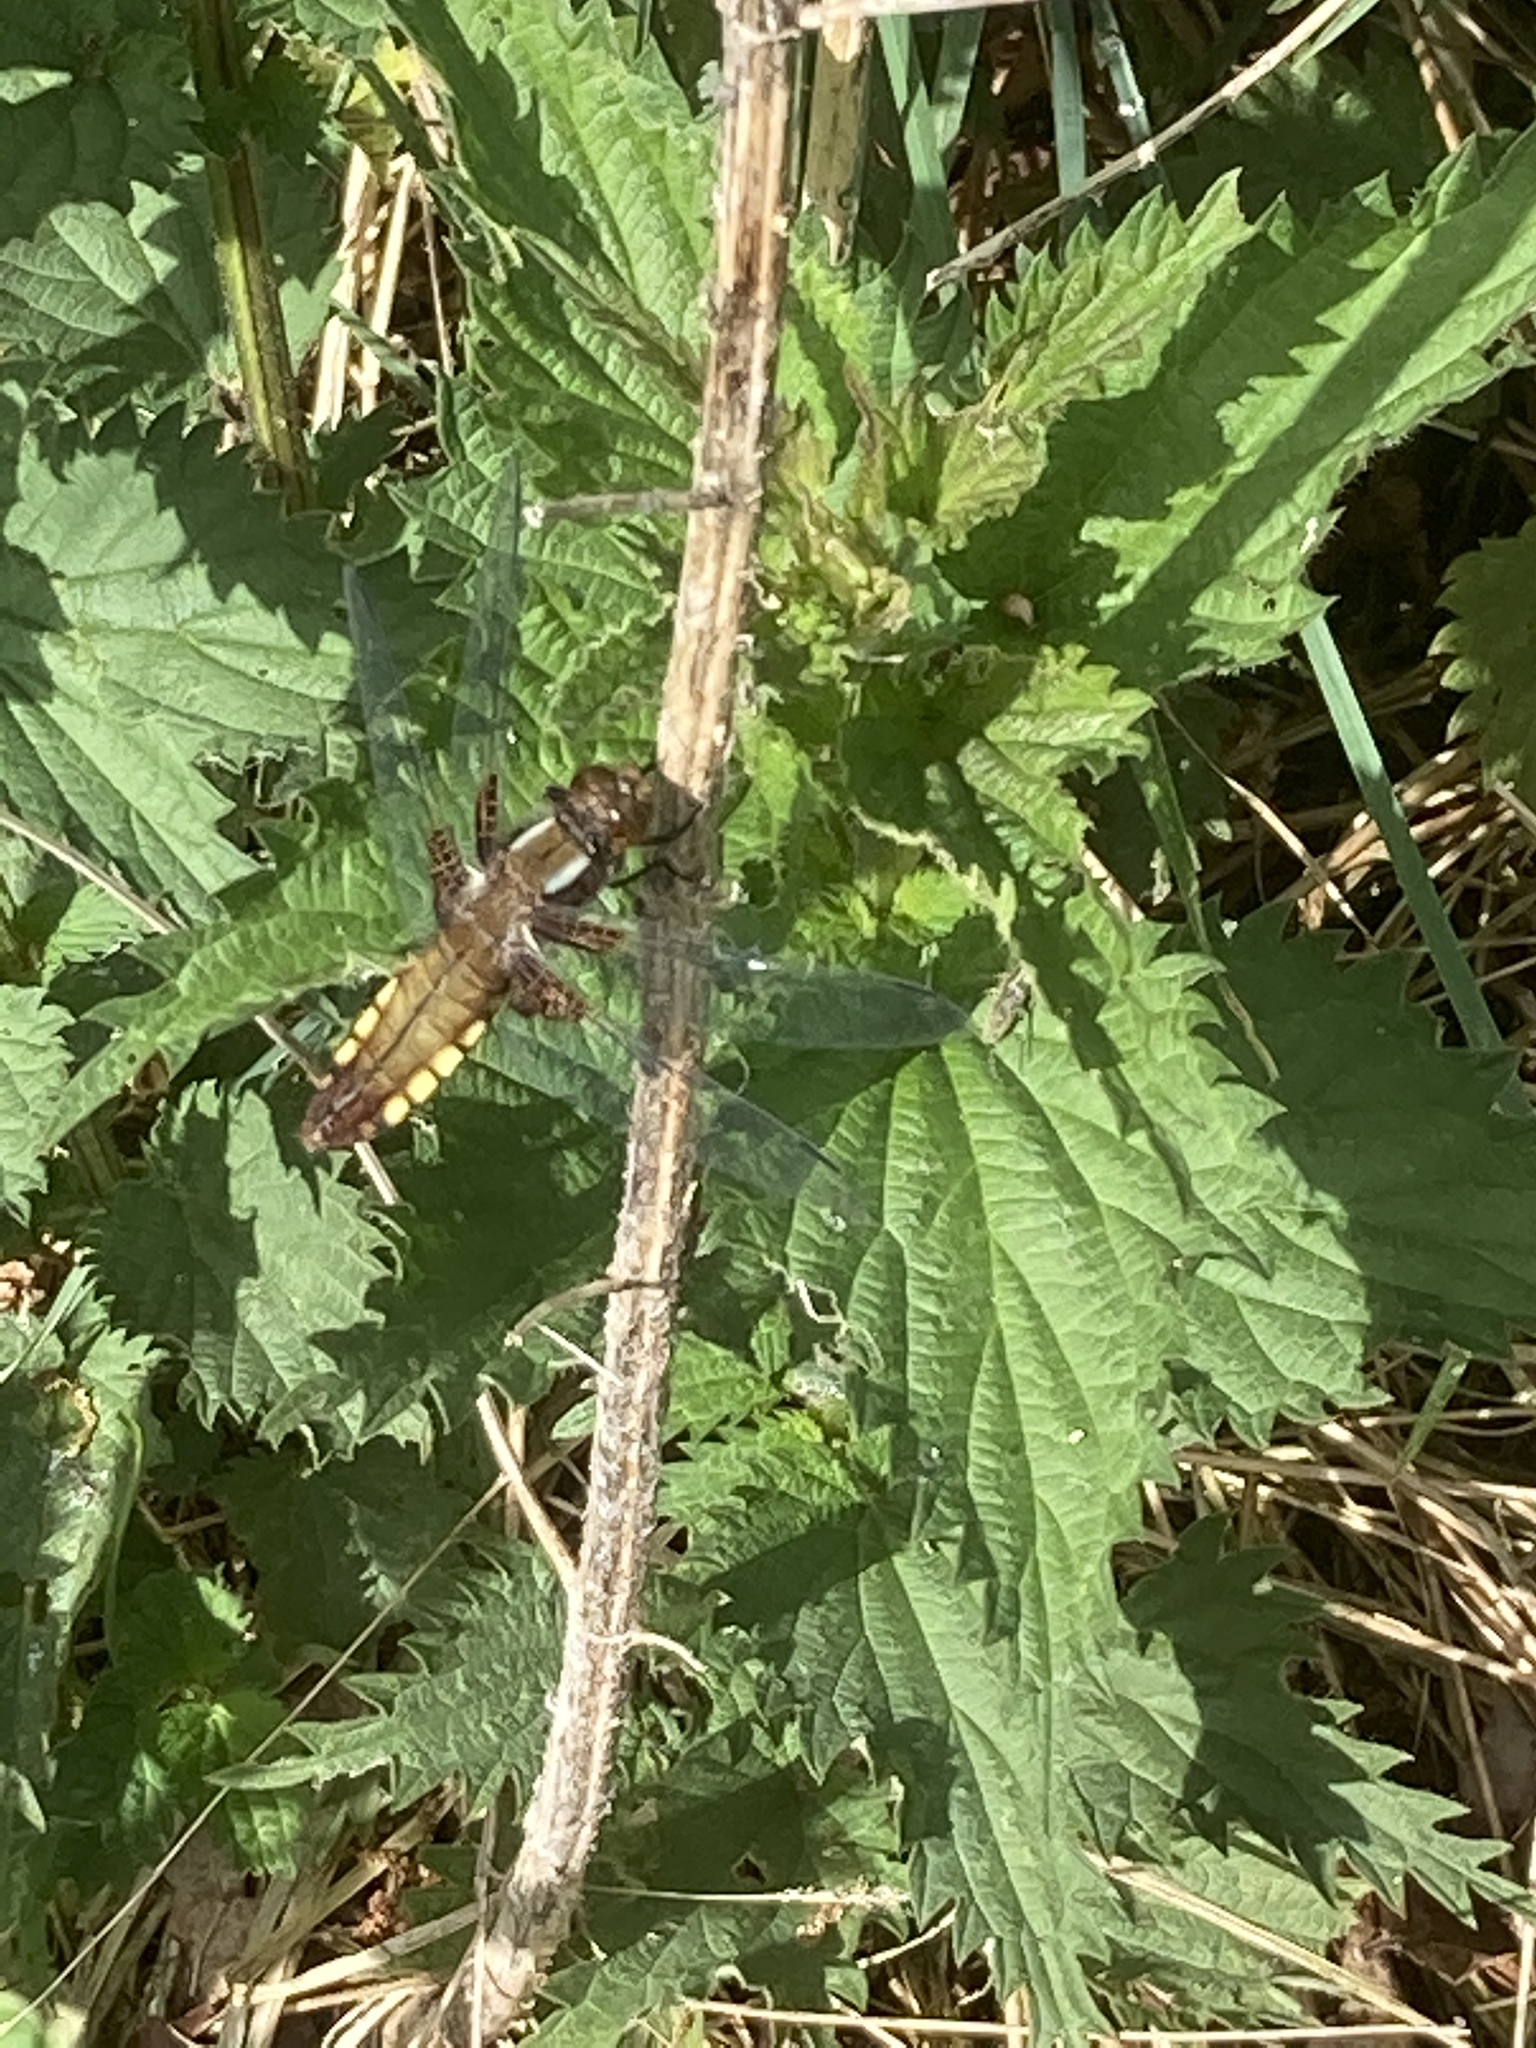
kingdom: Animalia
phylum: Arthropoda
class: Insecta
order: Odonata
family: Libellulidae
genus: Libellula
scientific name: Libellula depressa
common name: Broad-bodied chaser
